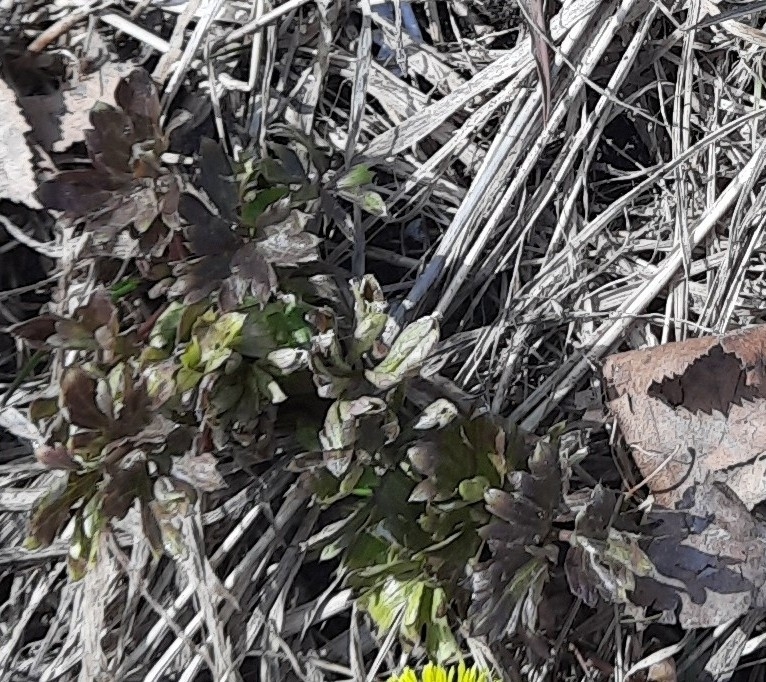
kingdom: Plantae
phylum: Tracheophyta
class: Magnoliopsida
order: Dipsacales
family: Caprifoliaceae
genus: Valeriana
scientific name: Valeriana wolgensis
